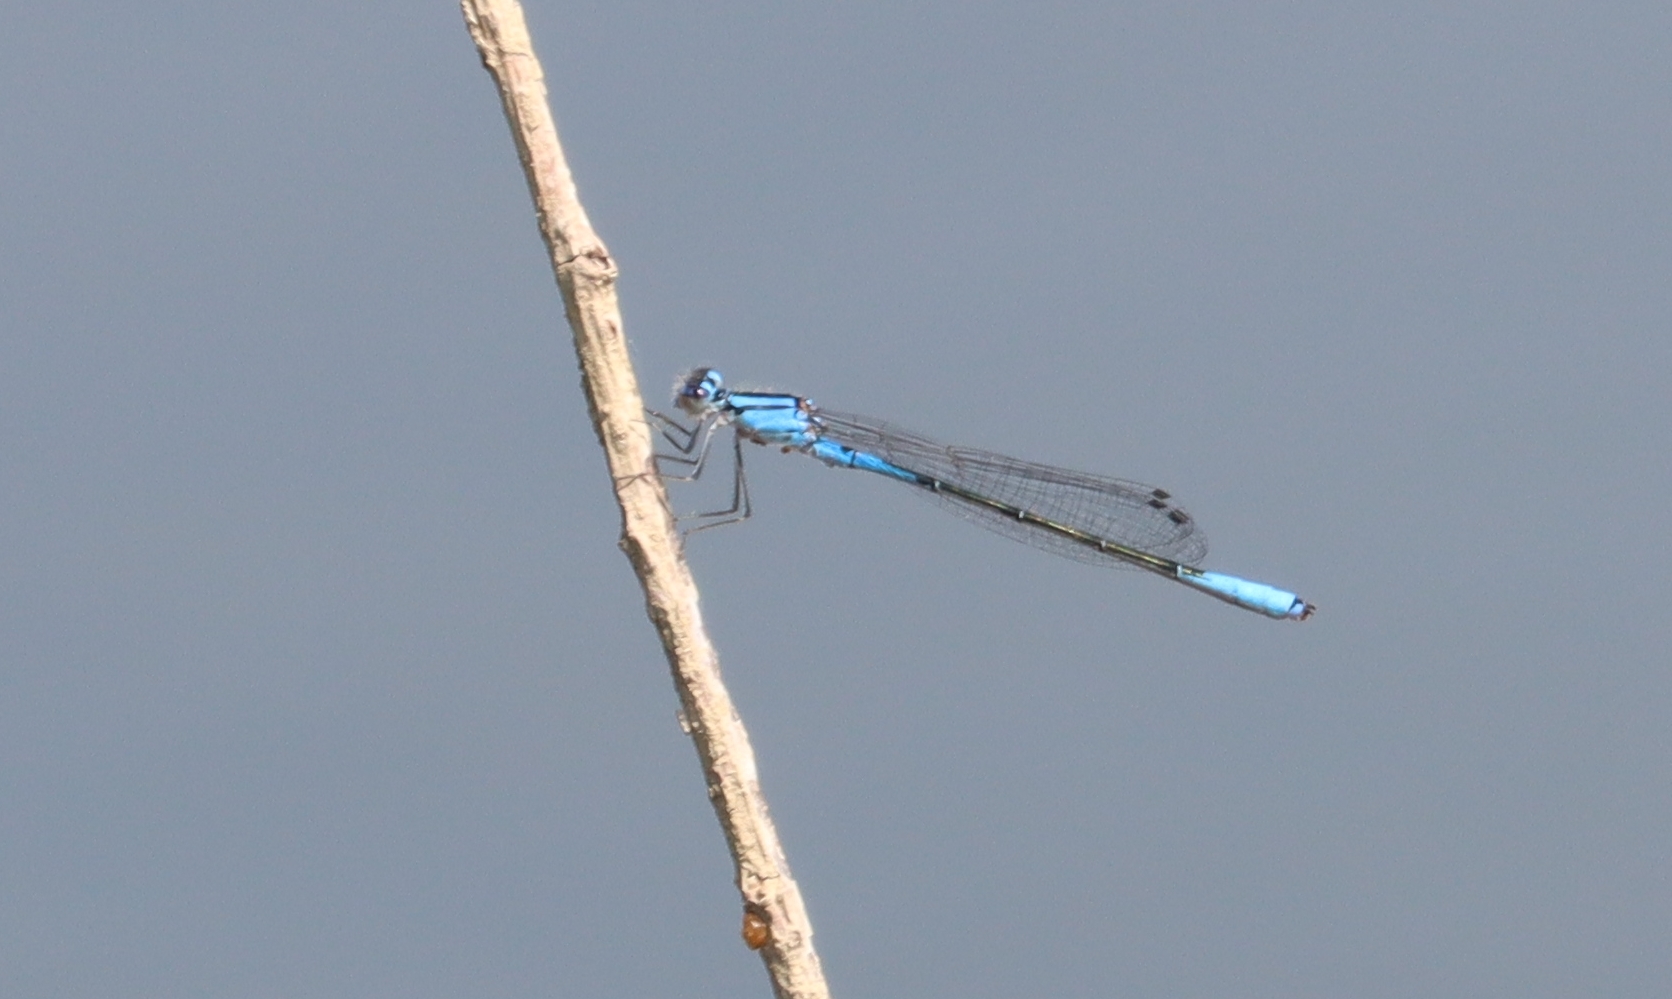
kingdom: Animalia
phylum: Arthropoda
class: Insecta
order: Odonata
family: Coenagrionidae
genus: Enallagma
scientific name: Enallagma aspersum
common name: Azure bluet
